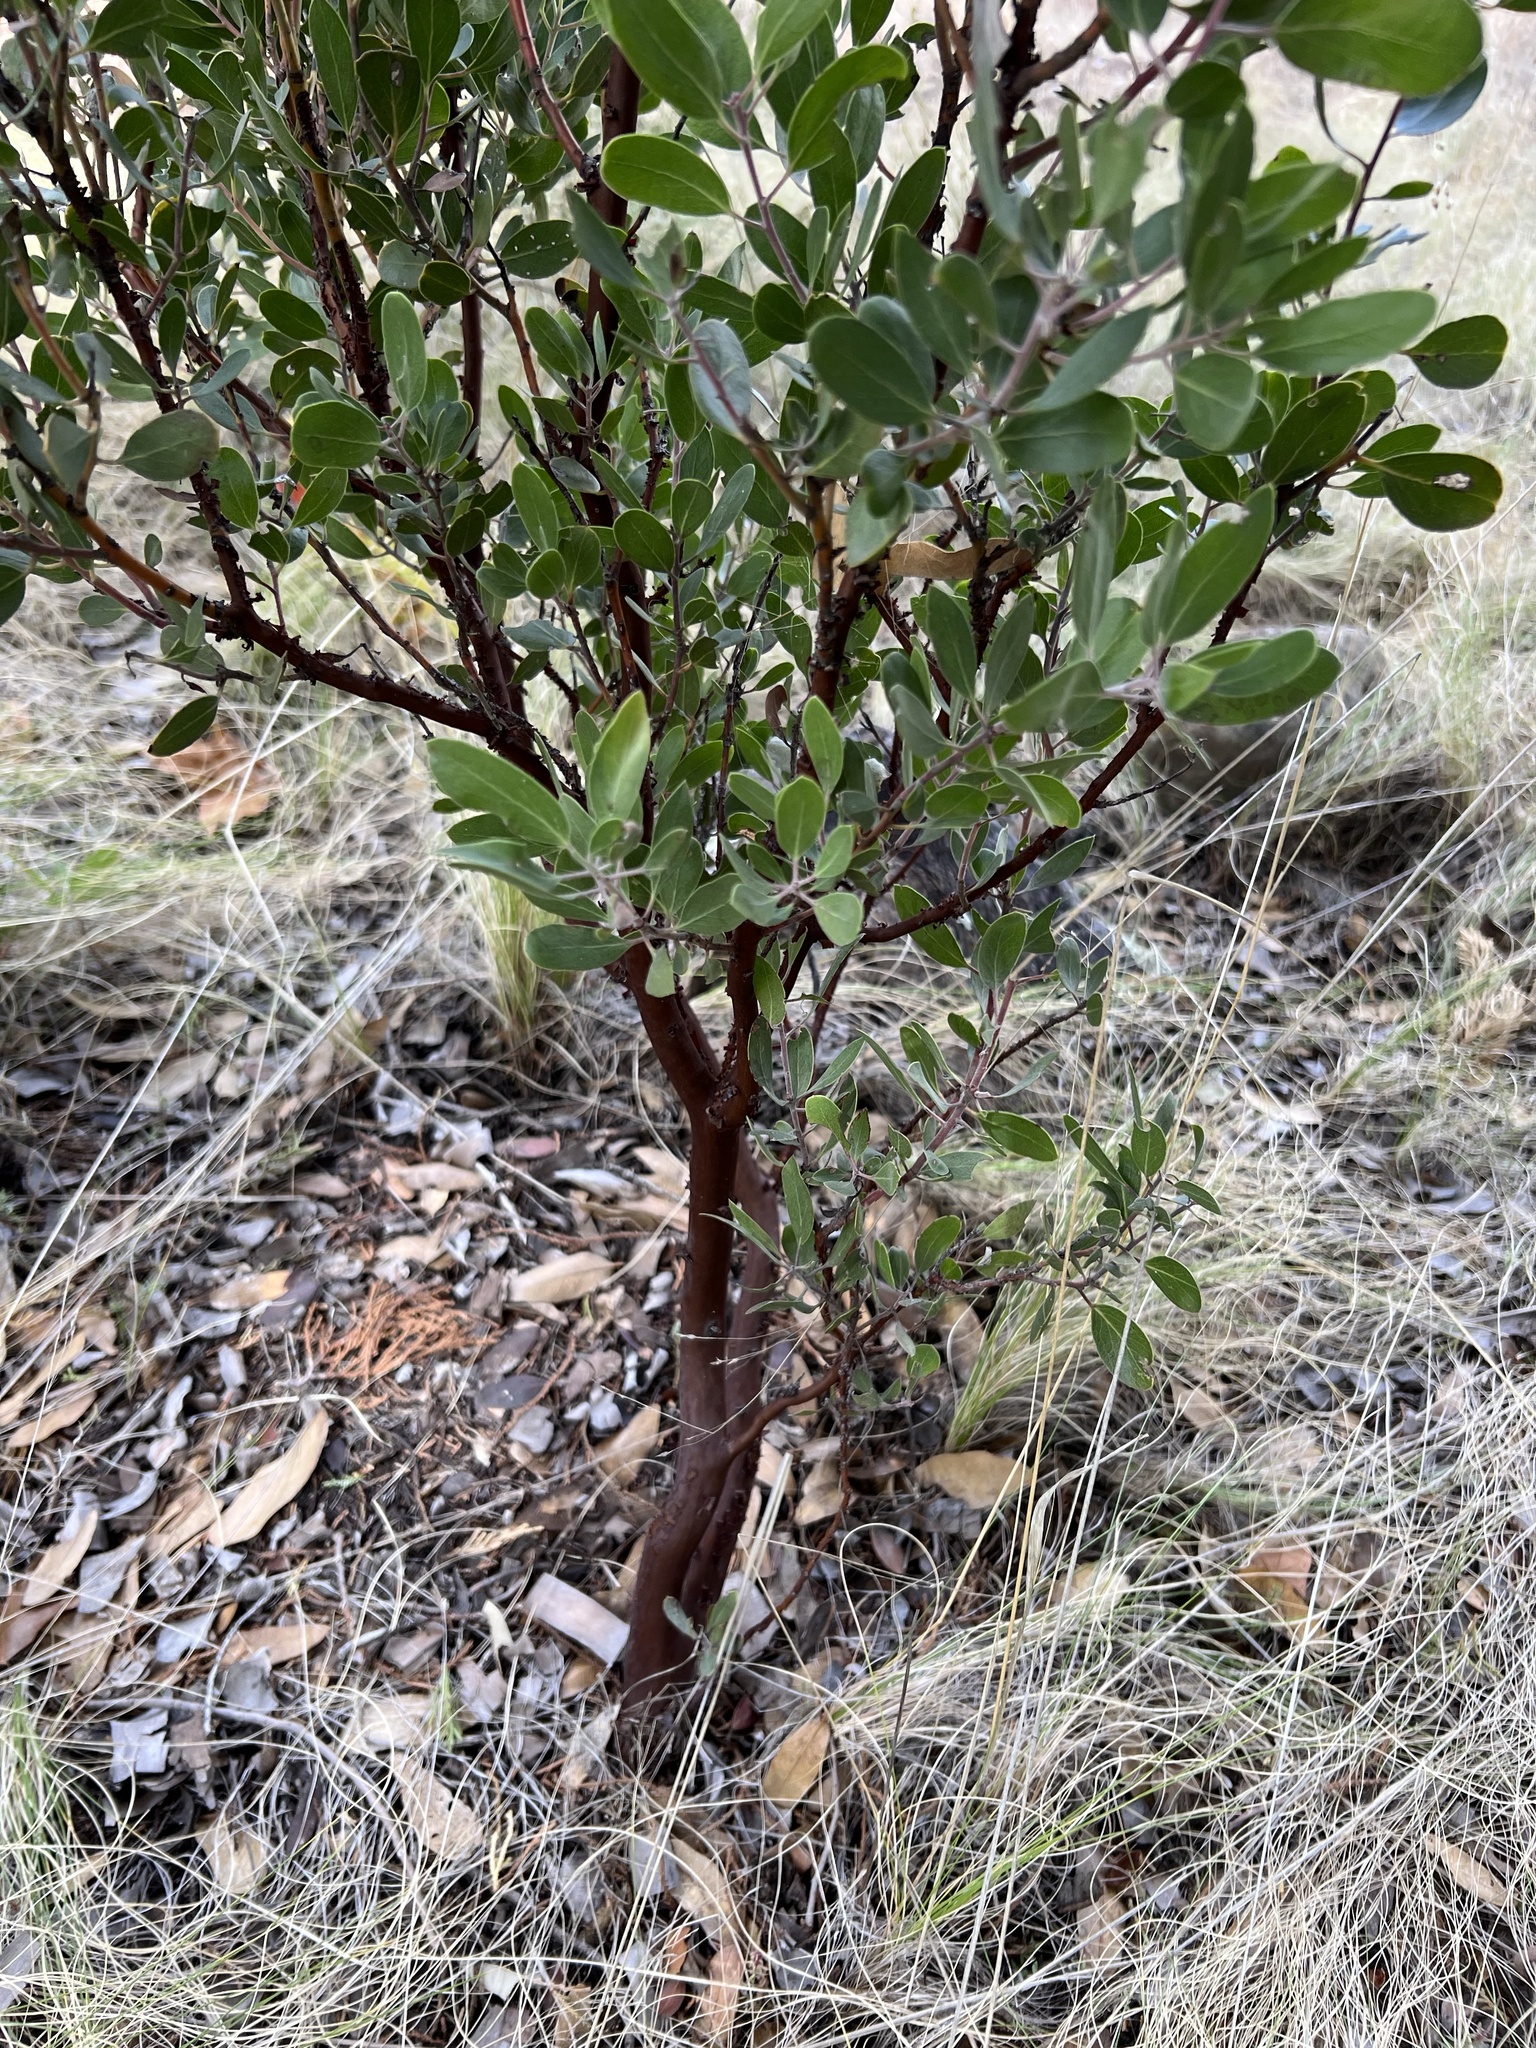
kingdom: Plantae
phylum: Tracheophyta
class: Magnoliopsida
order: Ericales
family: Ericaceae
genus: Arctostaphylos
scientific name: Arctostaphylos pungens
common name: Mexican manzanita
